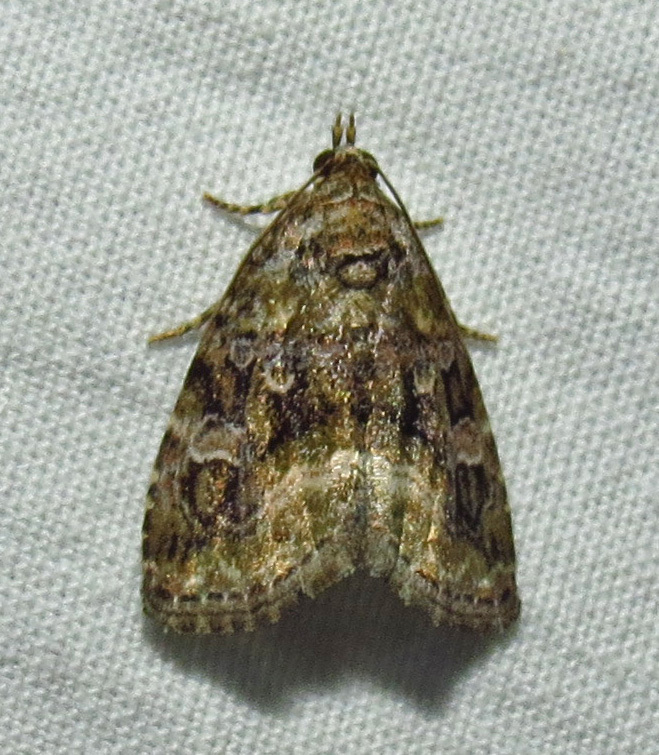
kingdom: Animalia
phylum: Arthropoda
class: Insecta
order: Lepidoptera
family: Noctuidae
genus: Protodeltote
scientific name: Protodeltote muscosula
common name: Large mossy glyph
